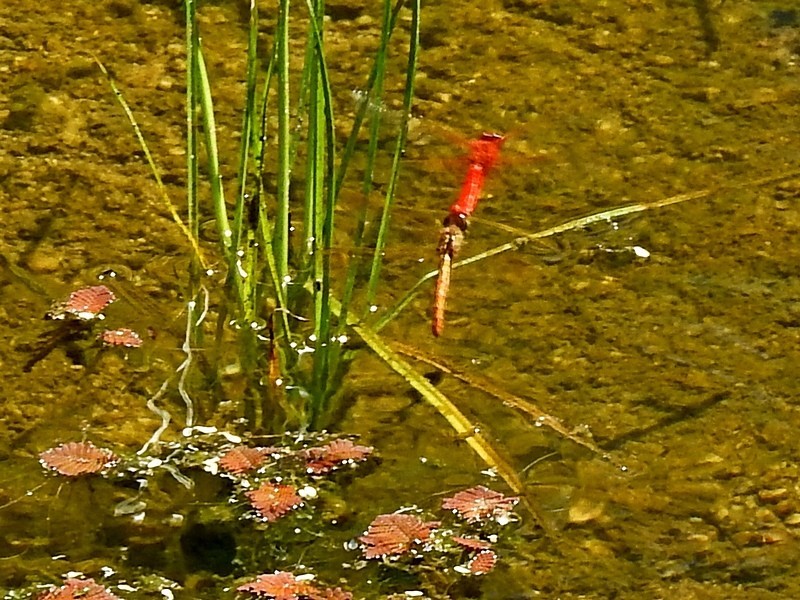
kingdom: Animalia
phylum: Arthropoda
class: Insecta
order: Odonata
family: Libellulidae
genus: Diplacodes
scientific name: Diplacodes haematodes
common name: Scarlet percher
